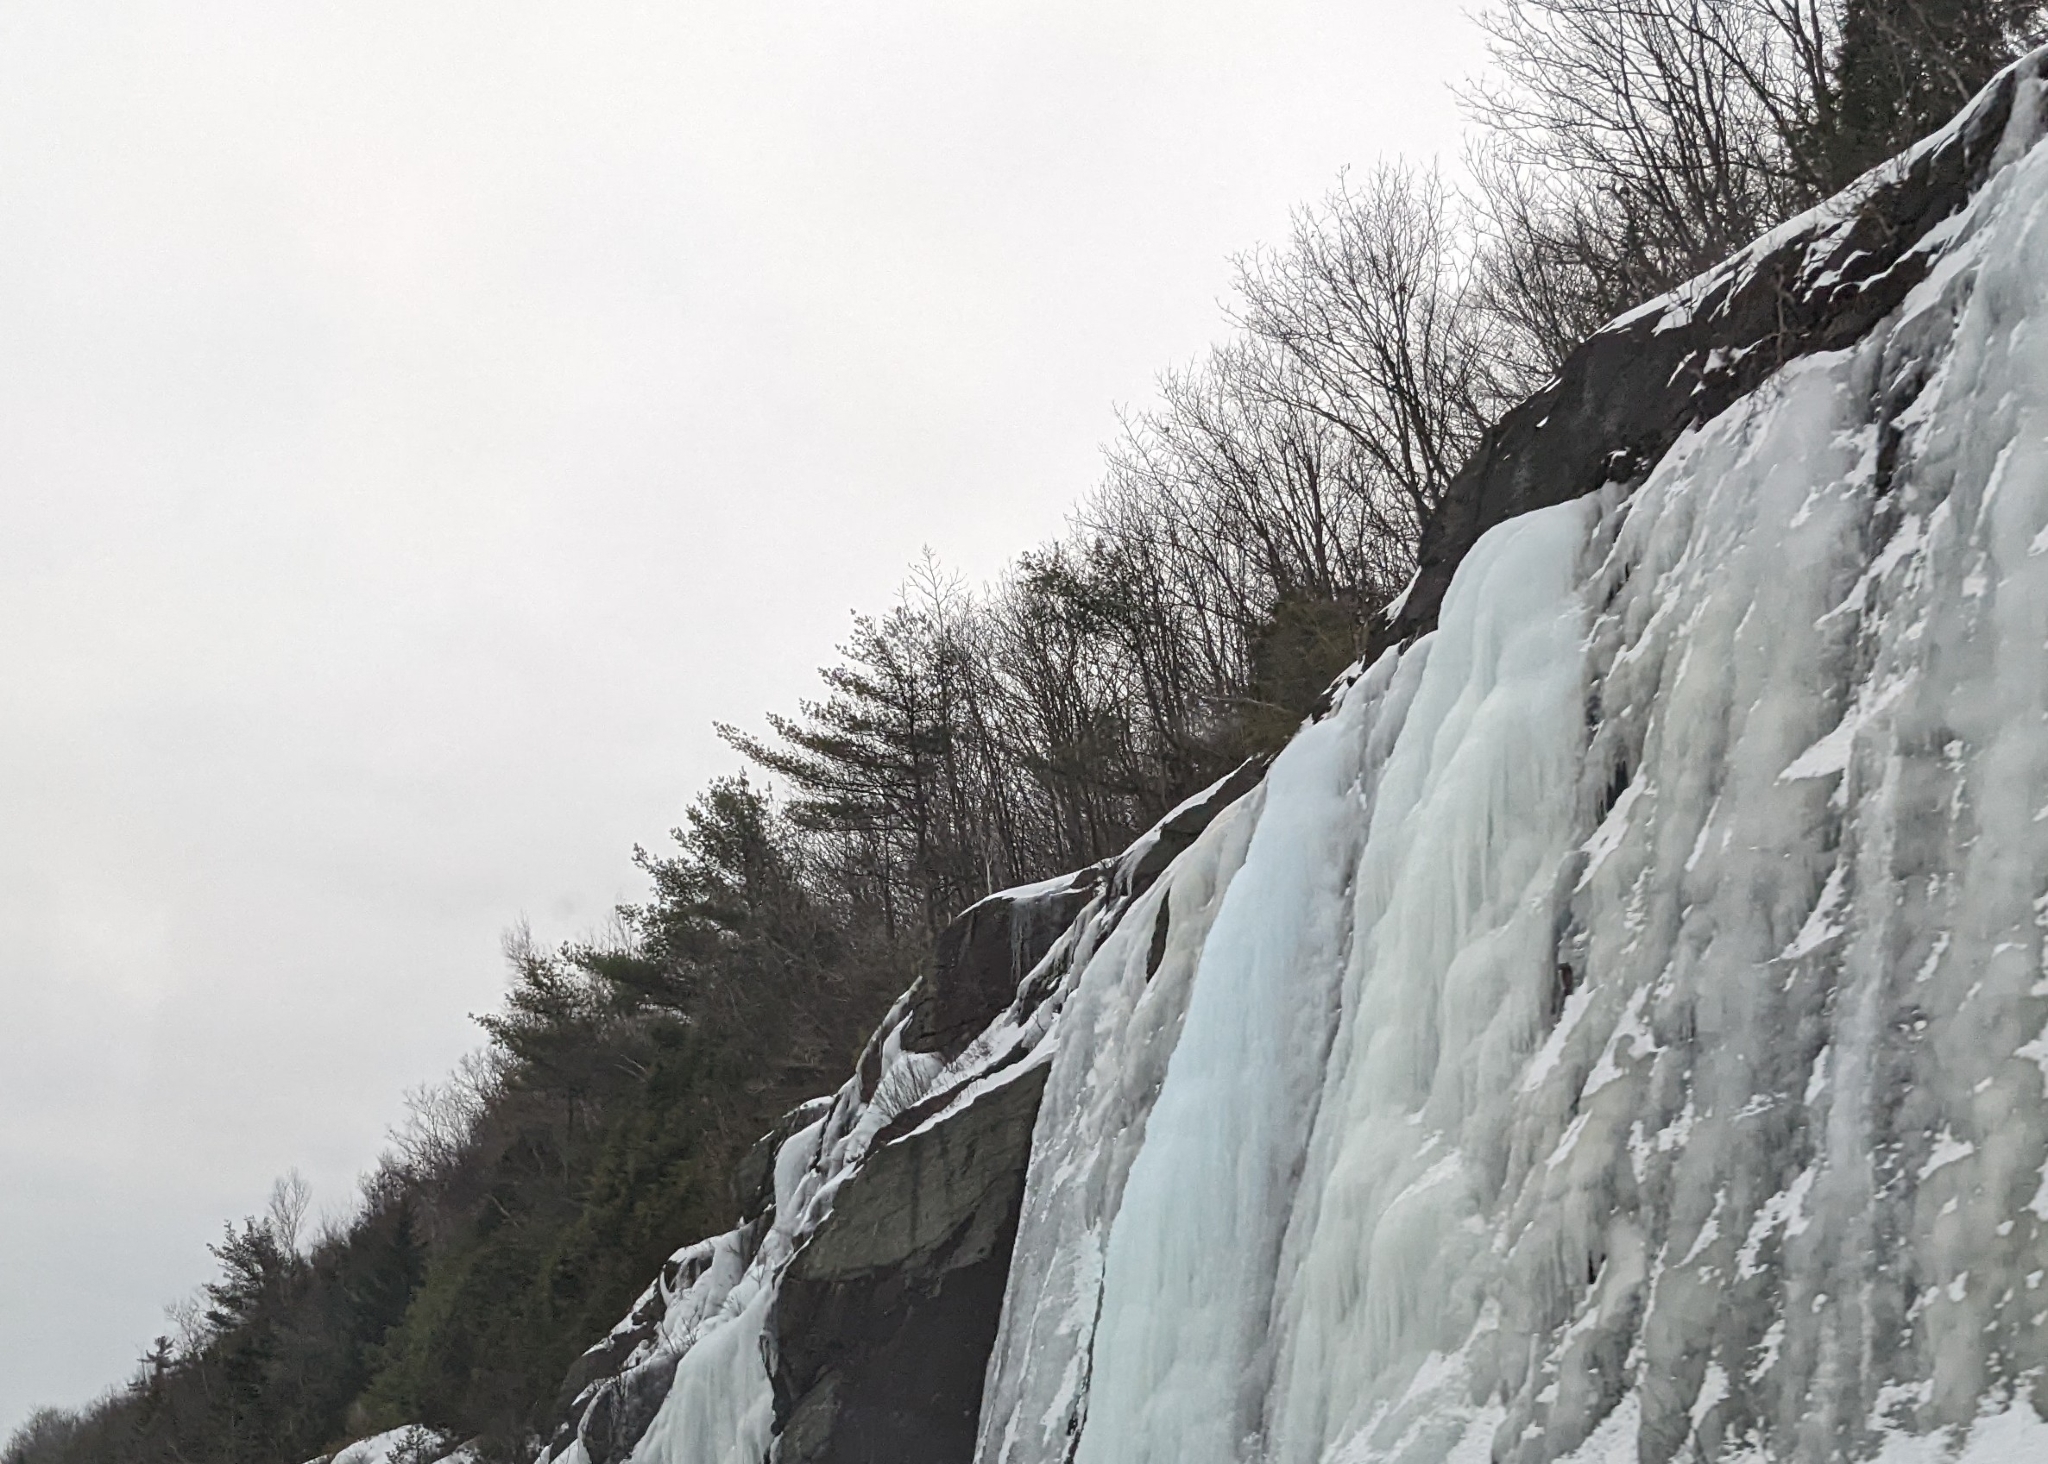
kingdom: Plantae
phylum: Tracheophyta
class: Pinopsida
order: Pinales
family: Pinaceae
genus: Pinus
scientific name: Pinus strobus
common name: Weymouth pine
